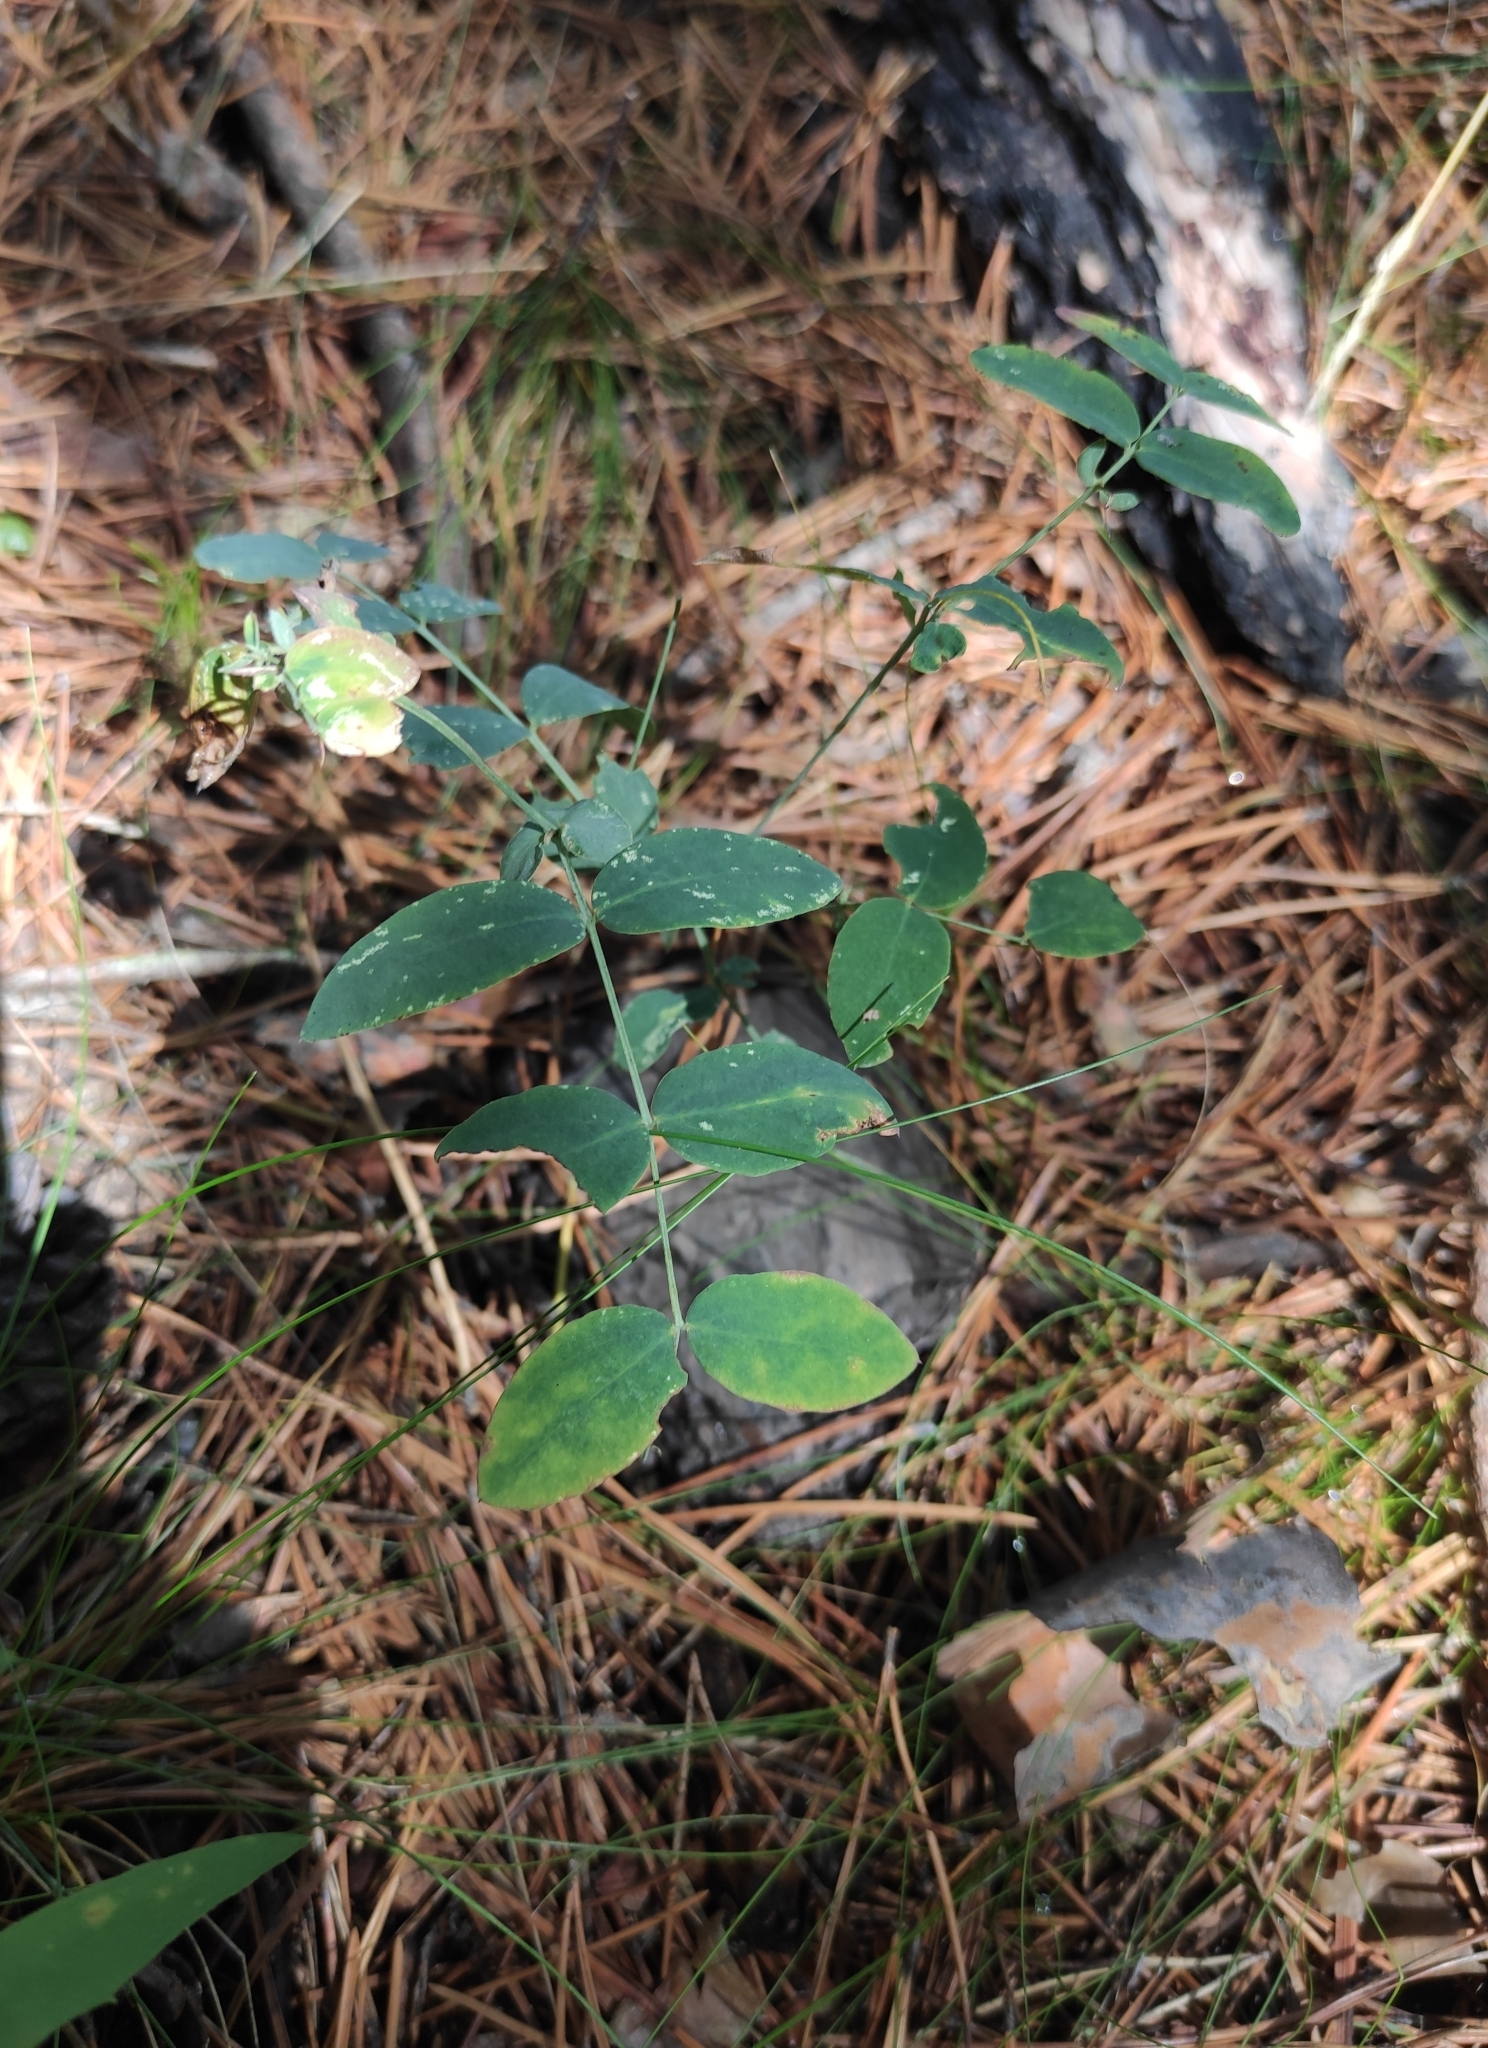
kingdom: Plantae
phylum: Tracheophyta
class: Magnoliopsida
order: Fabales
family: Fabaceae
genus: Lathyrus
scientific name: Lathyrus humilis
